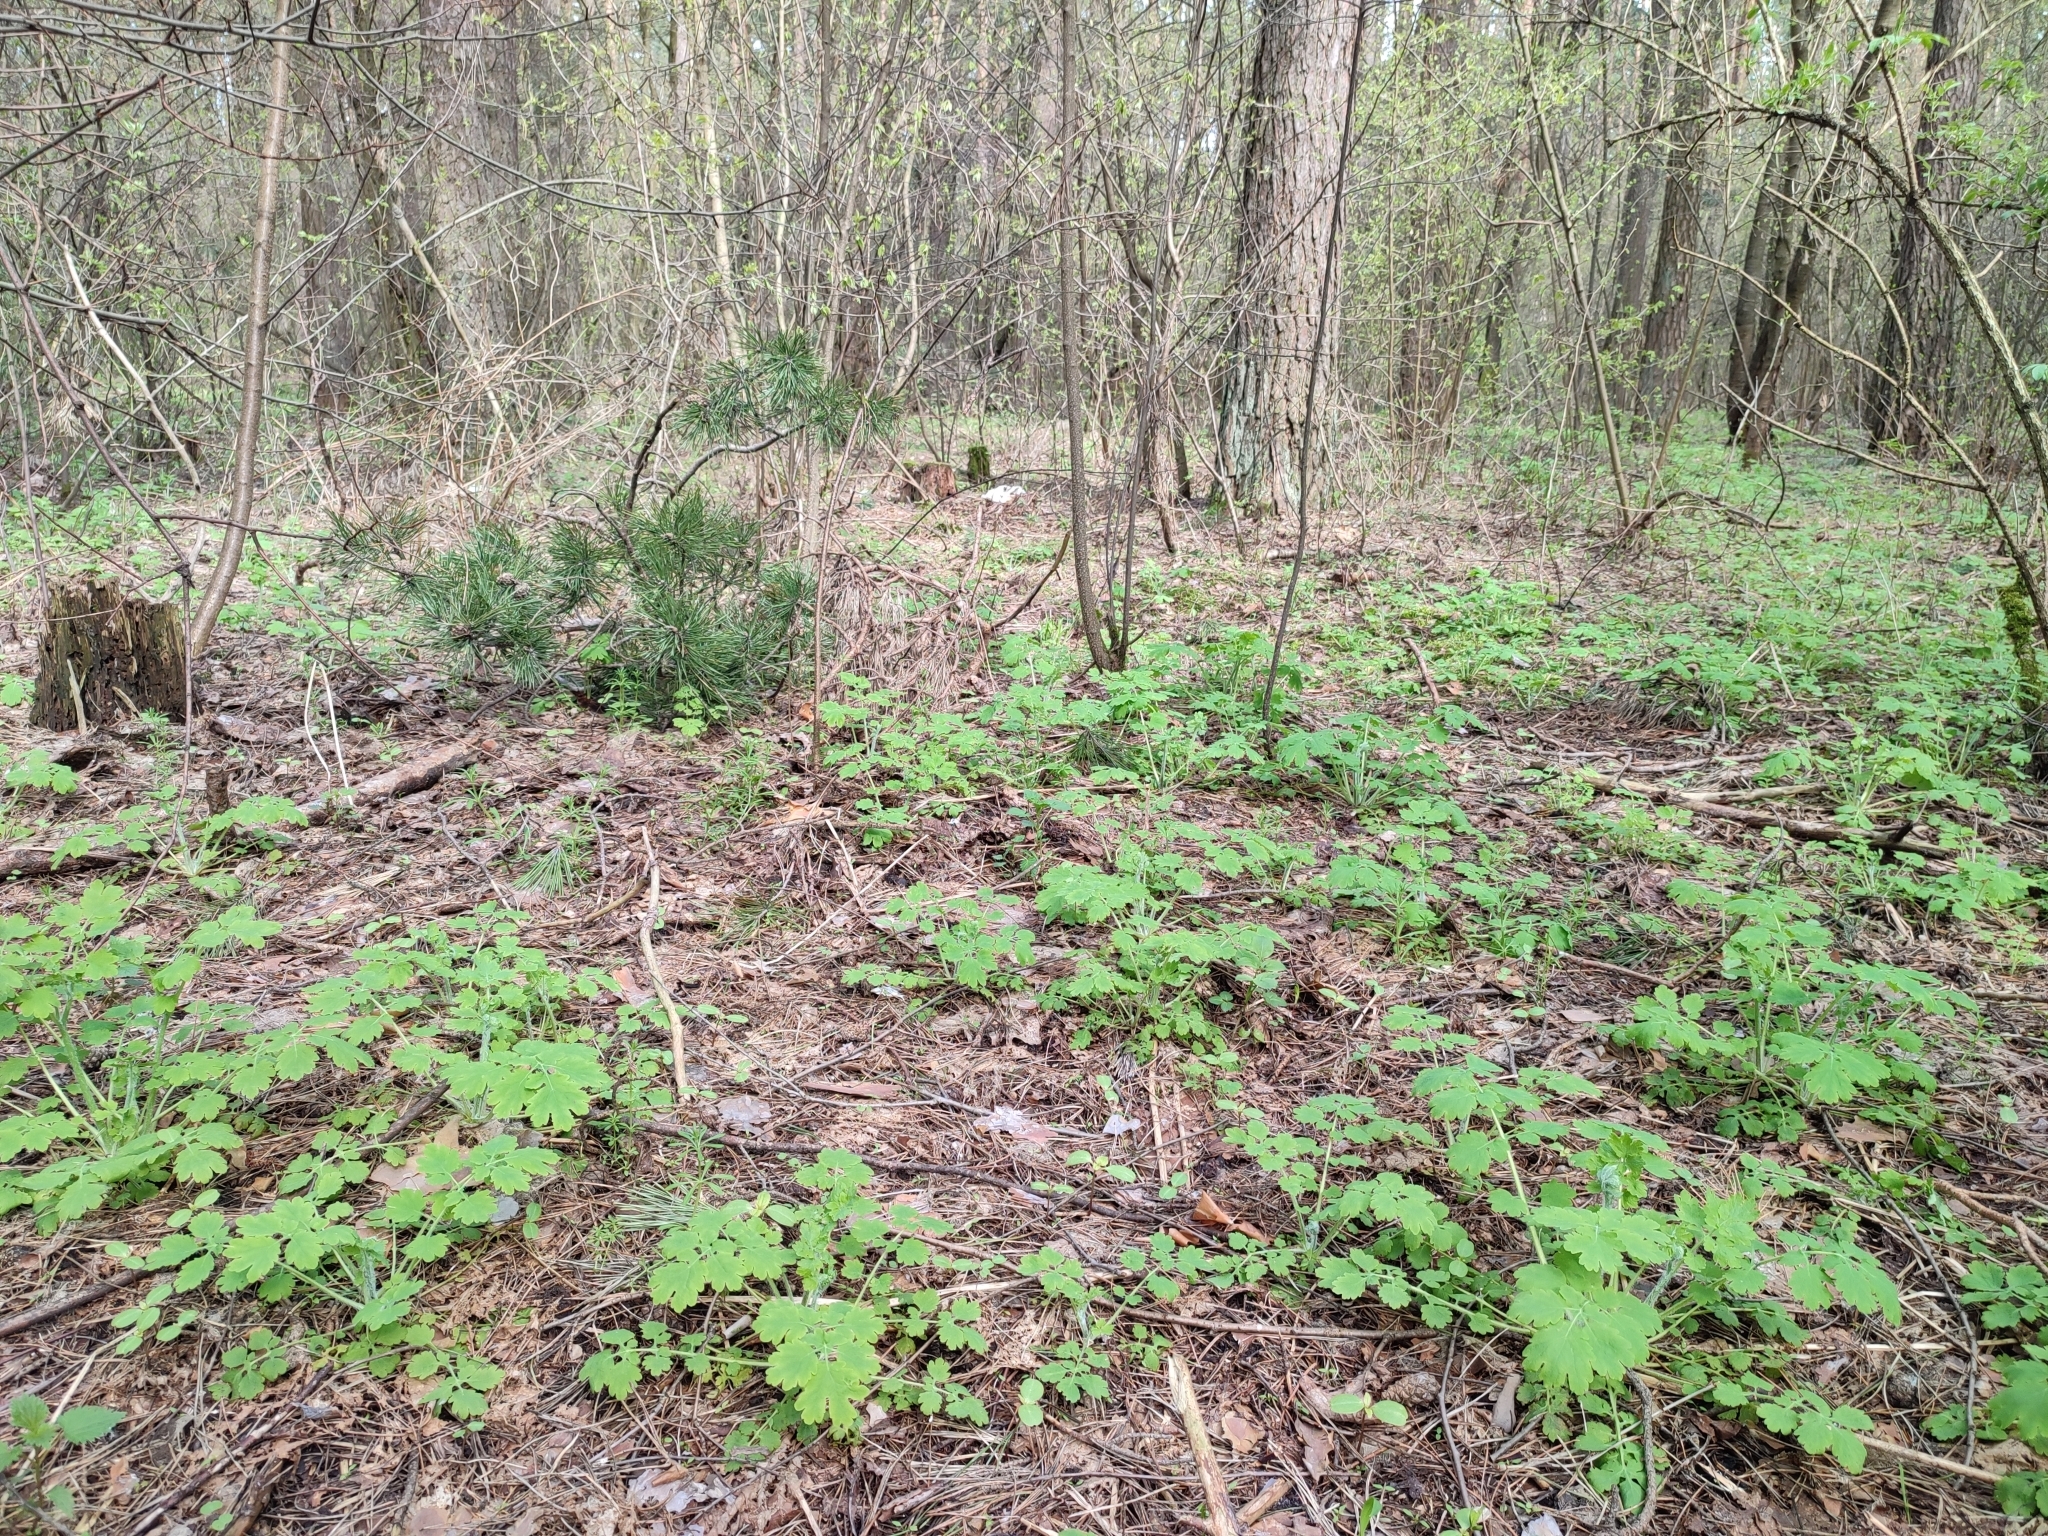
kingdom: Plantae
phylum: Tracheophyta
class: Magnoliopsida
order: Ranunculales
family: Papaveraceae
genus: Chelidonium
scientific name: Chelidonium majus
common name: Greater celandine
